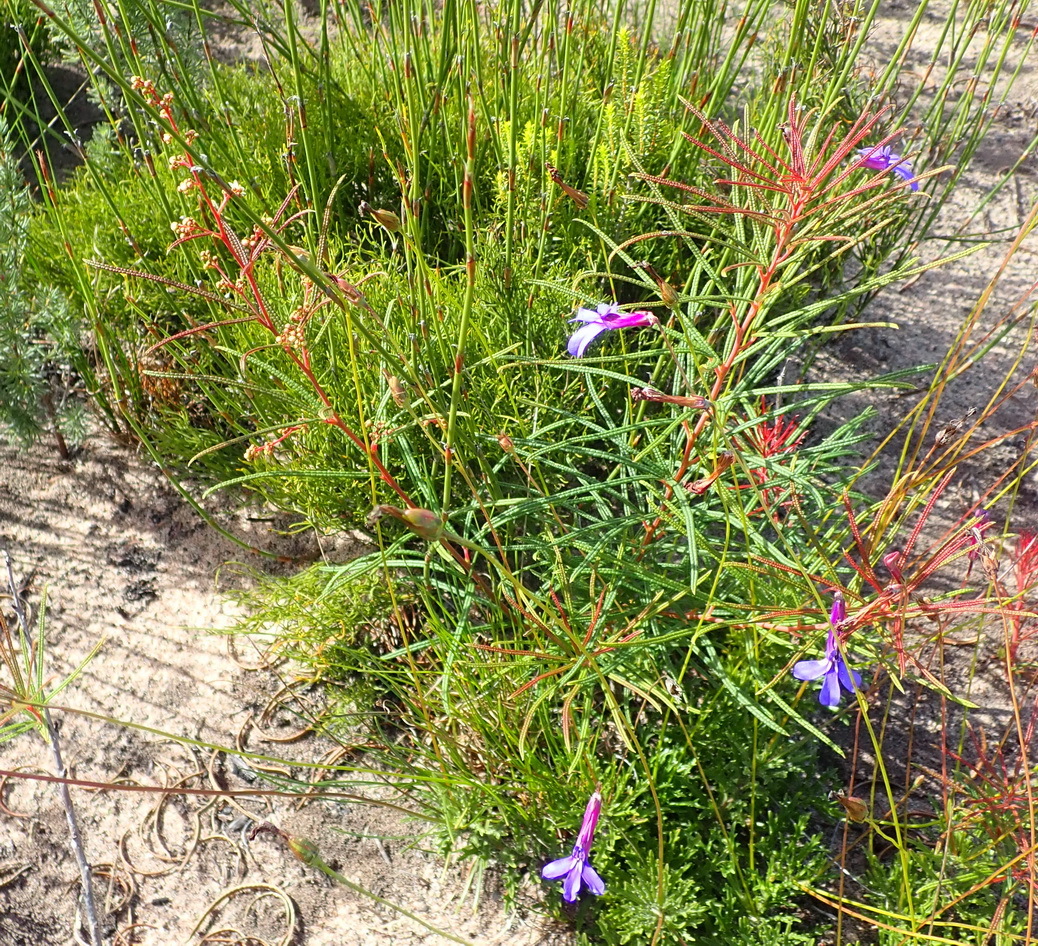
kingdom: Plantae
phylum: Tracheophyta
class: Magnoliopsida
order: Sapindales
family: Anacardiaceae
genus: Searsia
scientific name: Searsia rosmarinifolia
